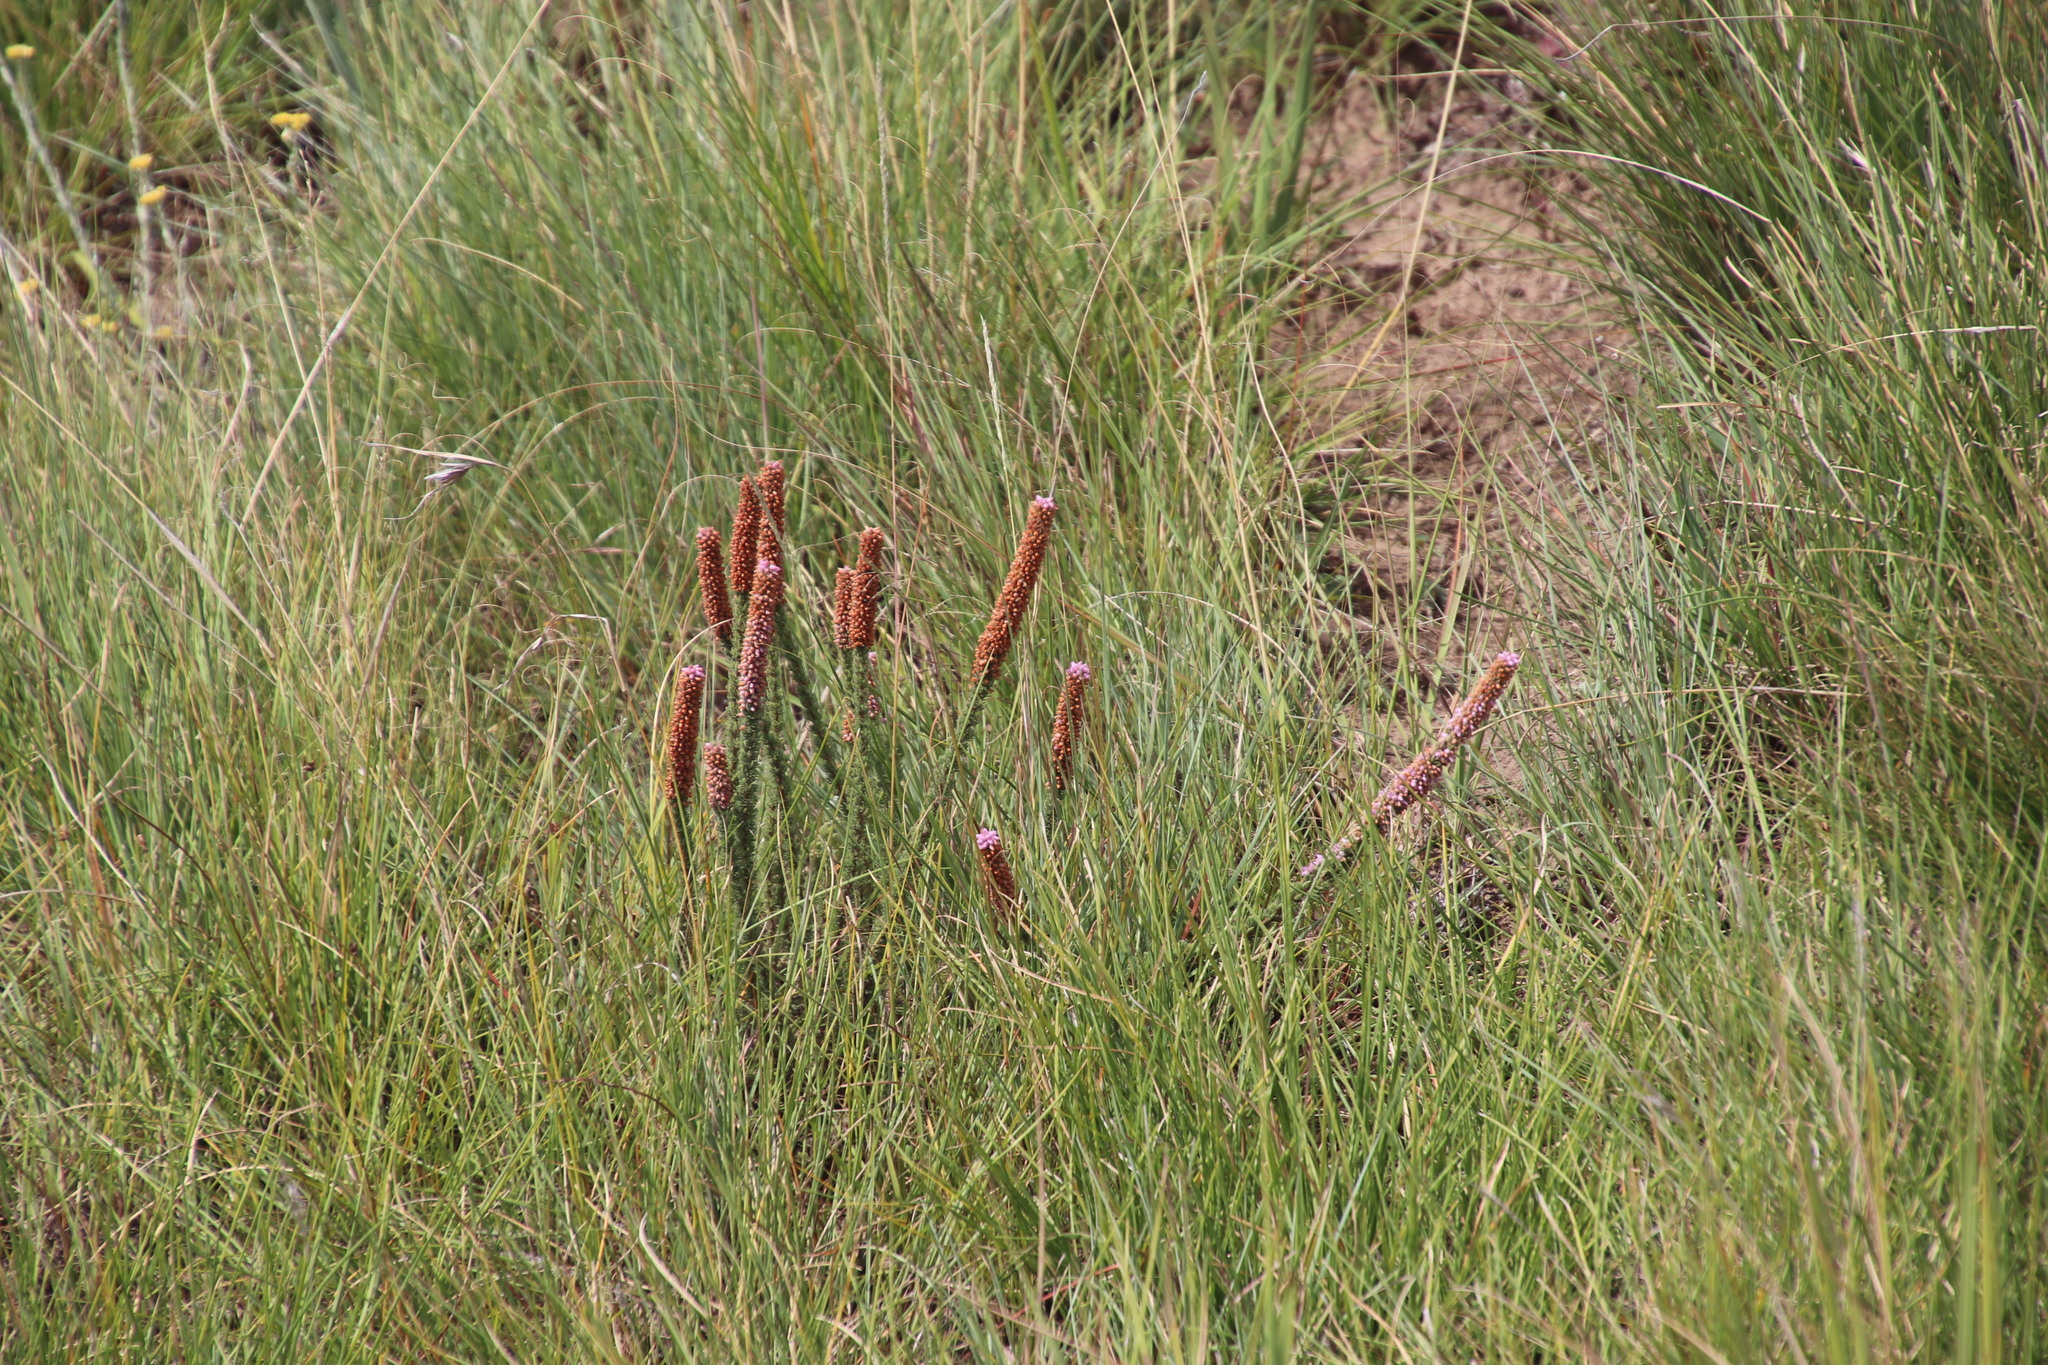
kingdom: Plantae
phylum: Tracheophyta
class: Magnoliopsida
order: Ericales
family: Ericaceae
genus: Erica
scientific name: Erica alopecurus
